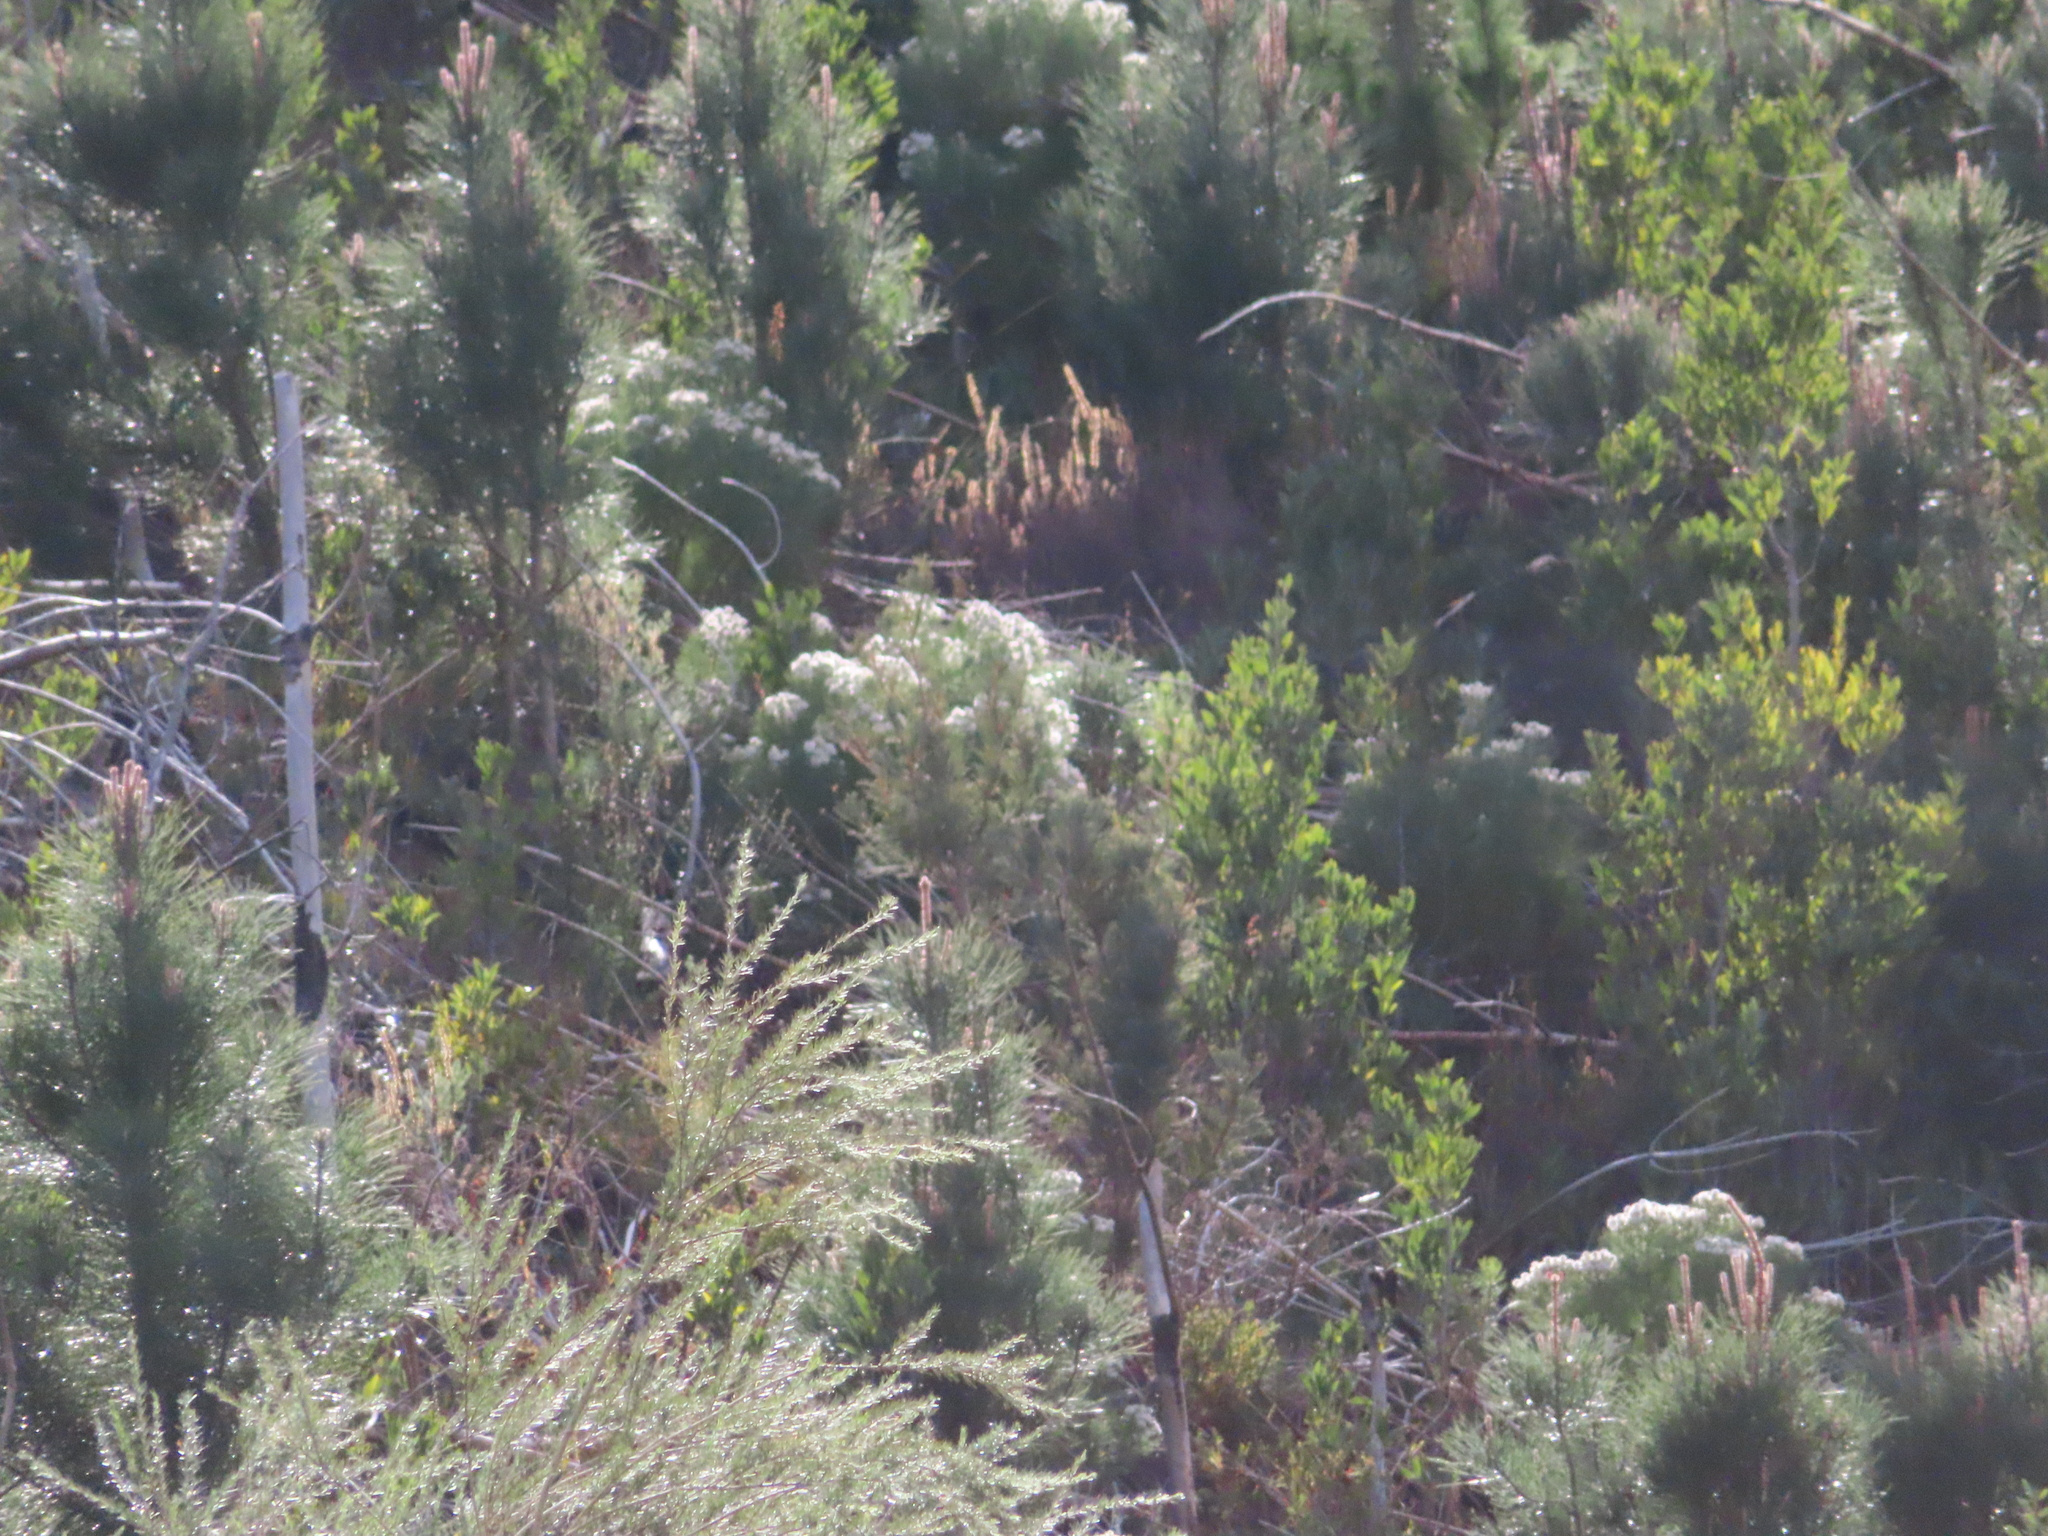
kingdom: Plantae
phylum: Tracheophyta
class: Magnoliopsida
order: Proteales
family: Proteaceae
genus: Serruria
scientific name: Serruria kraussii
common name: Snowball spiderhead
